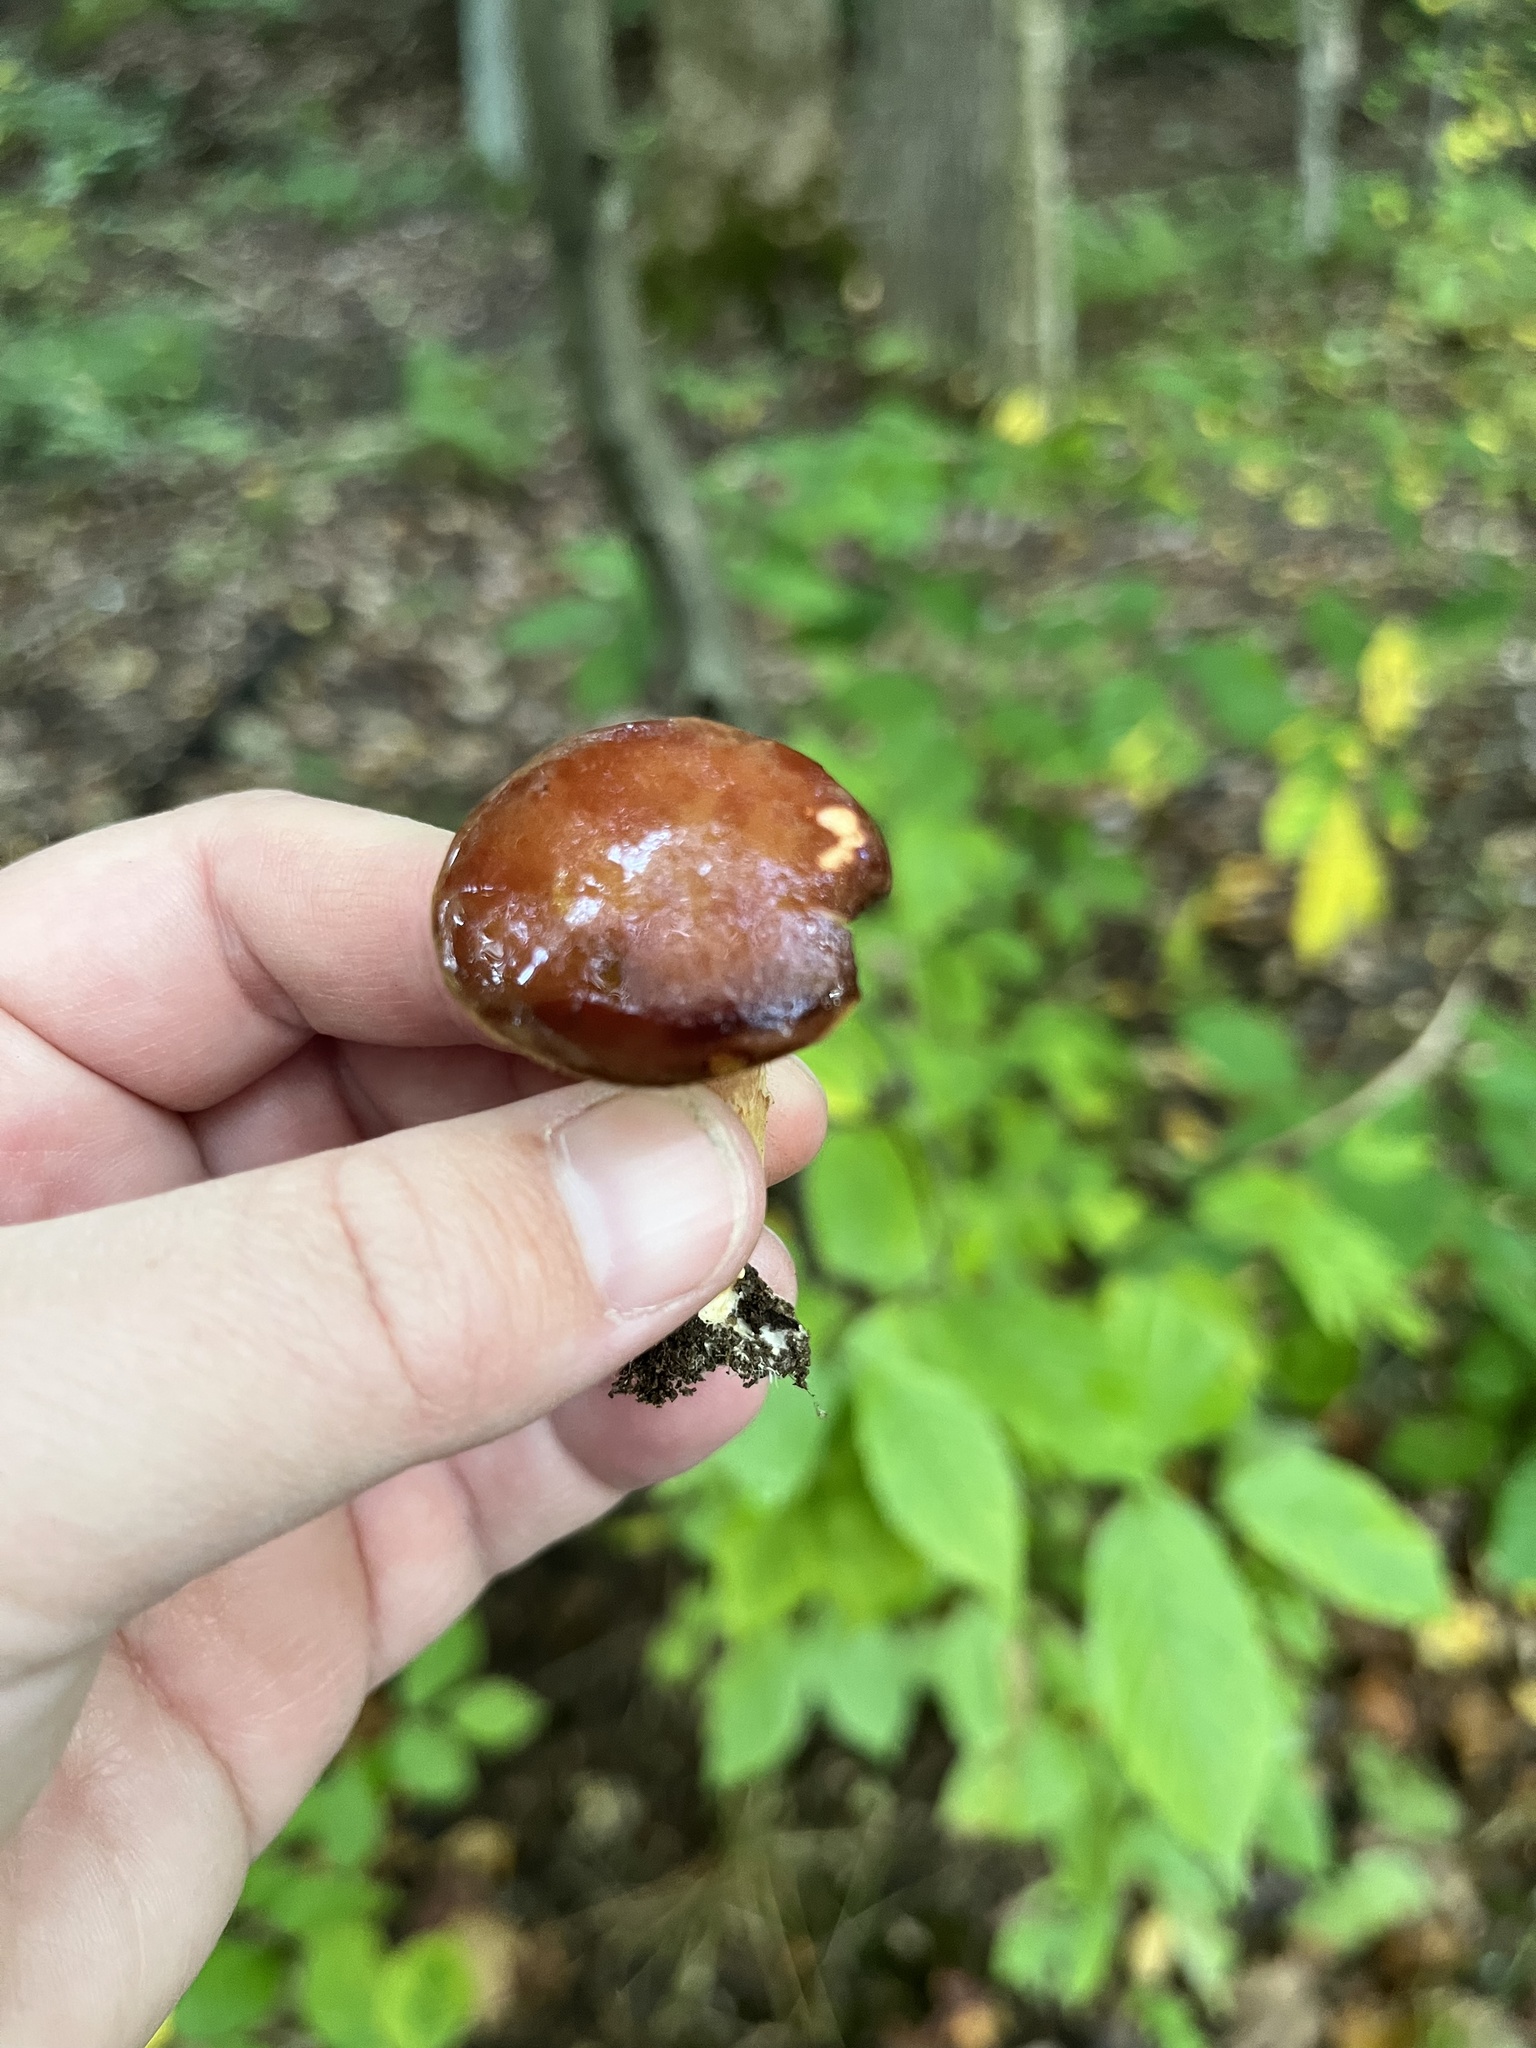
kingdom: Fungi
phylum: Basidiomycota
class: Agaricomycetes
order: Boletales
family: Boletaceae
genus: Phylloporus
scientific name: Phylloporus leucomycelinus
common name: Gilled bolete
